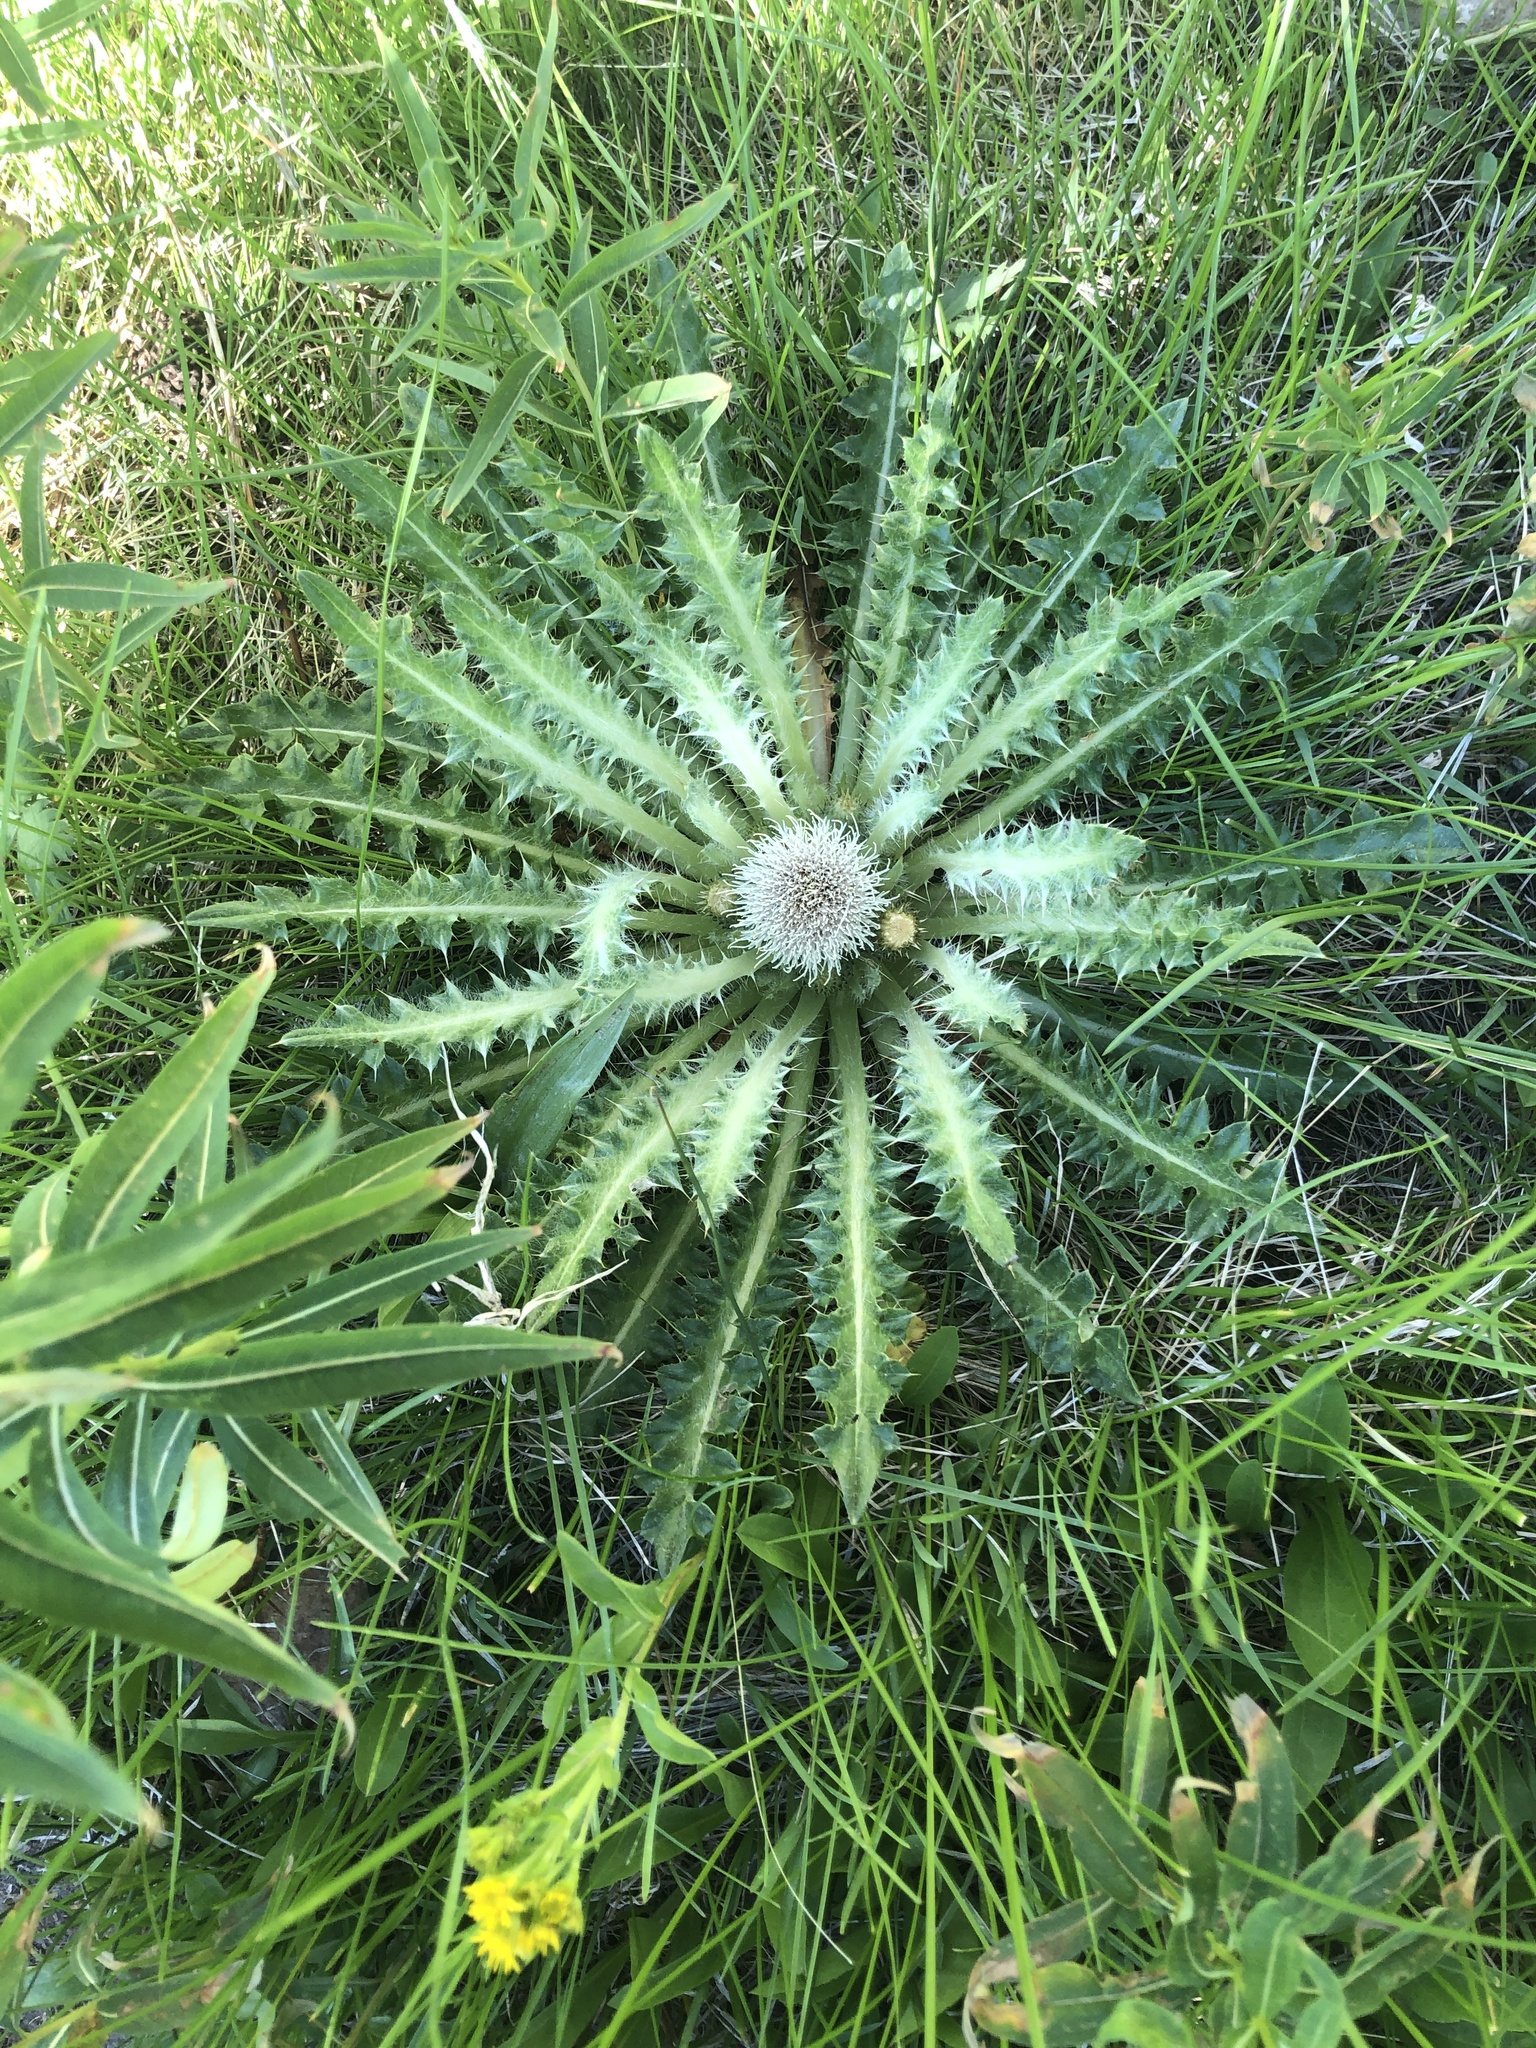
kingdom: Plantae
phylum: Tracheophyta
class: Magnoliopsida
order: Asterales
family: Asteraceae
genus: Cirsium
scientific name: Cirsium scariosum
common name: Meadow thistle
